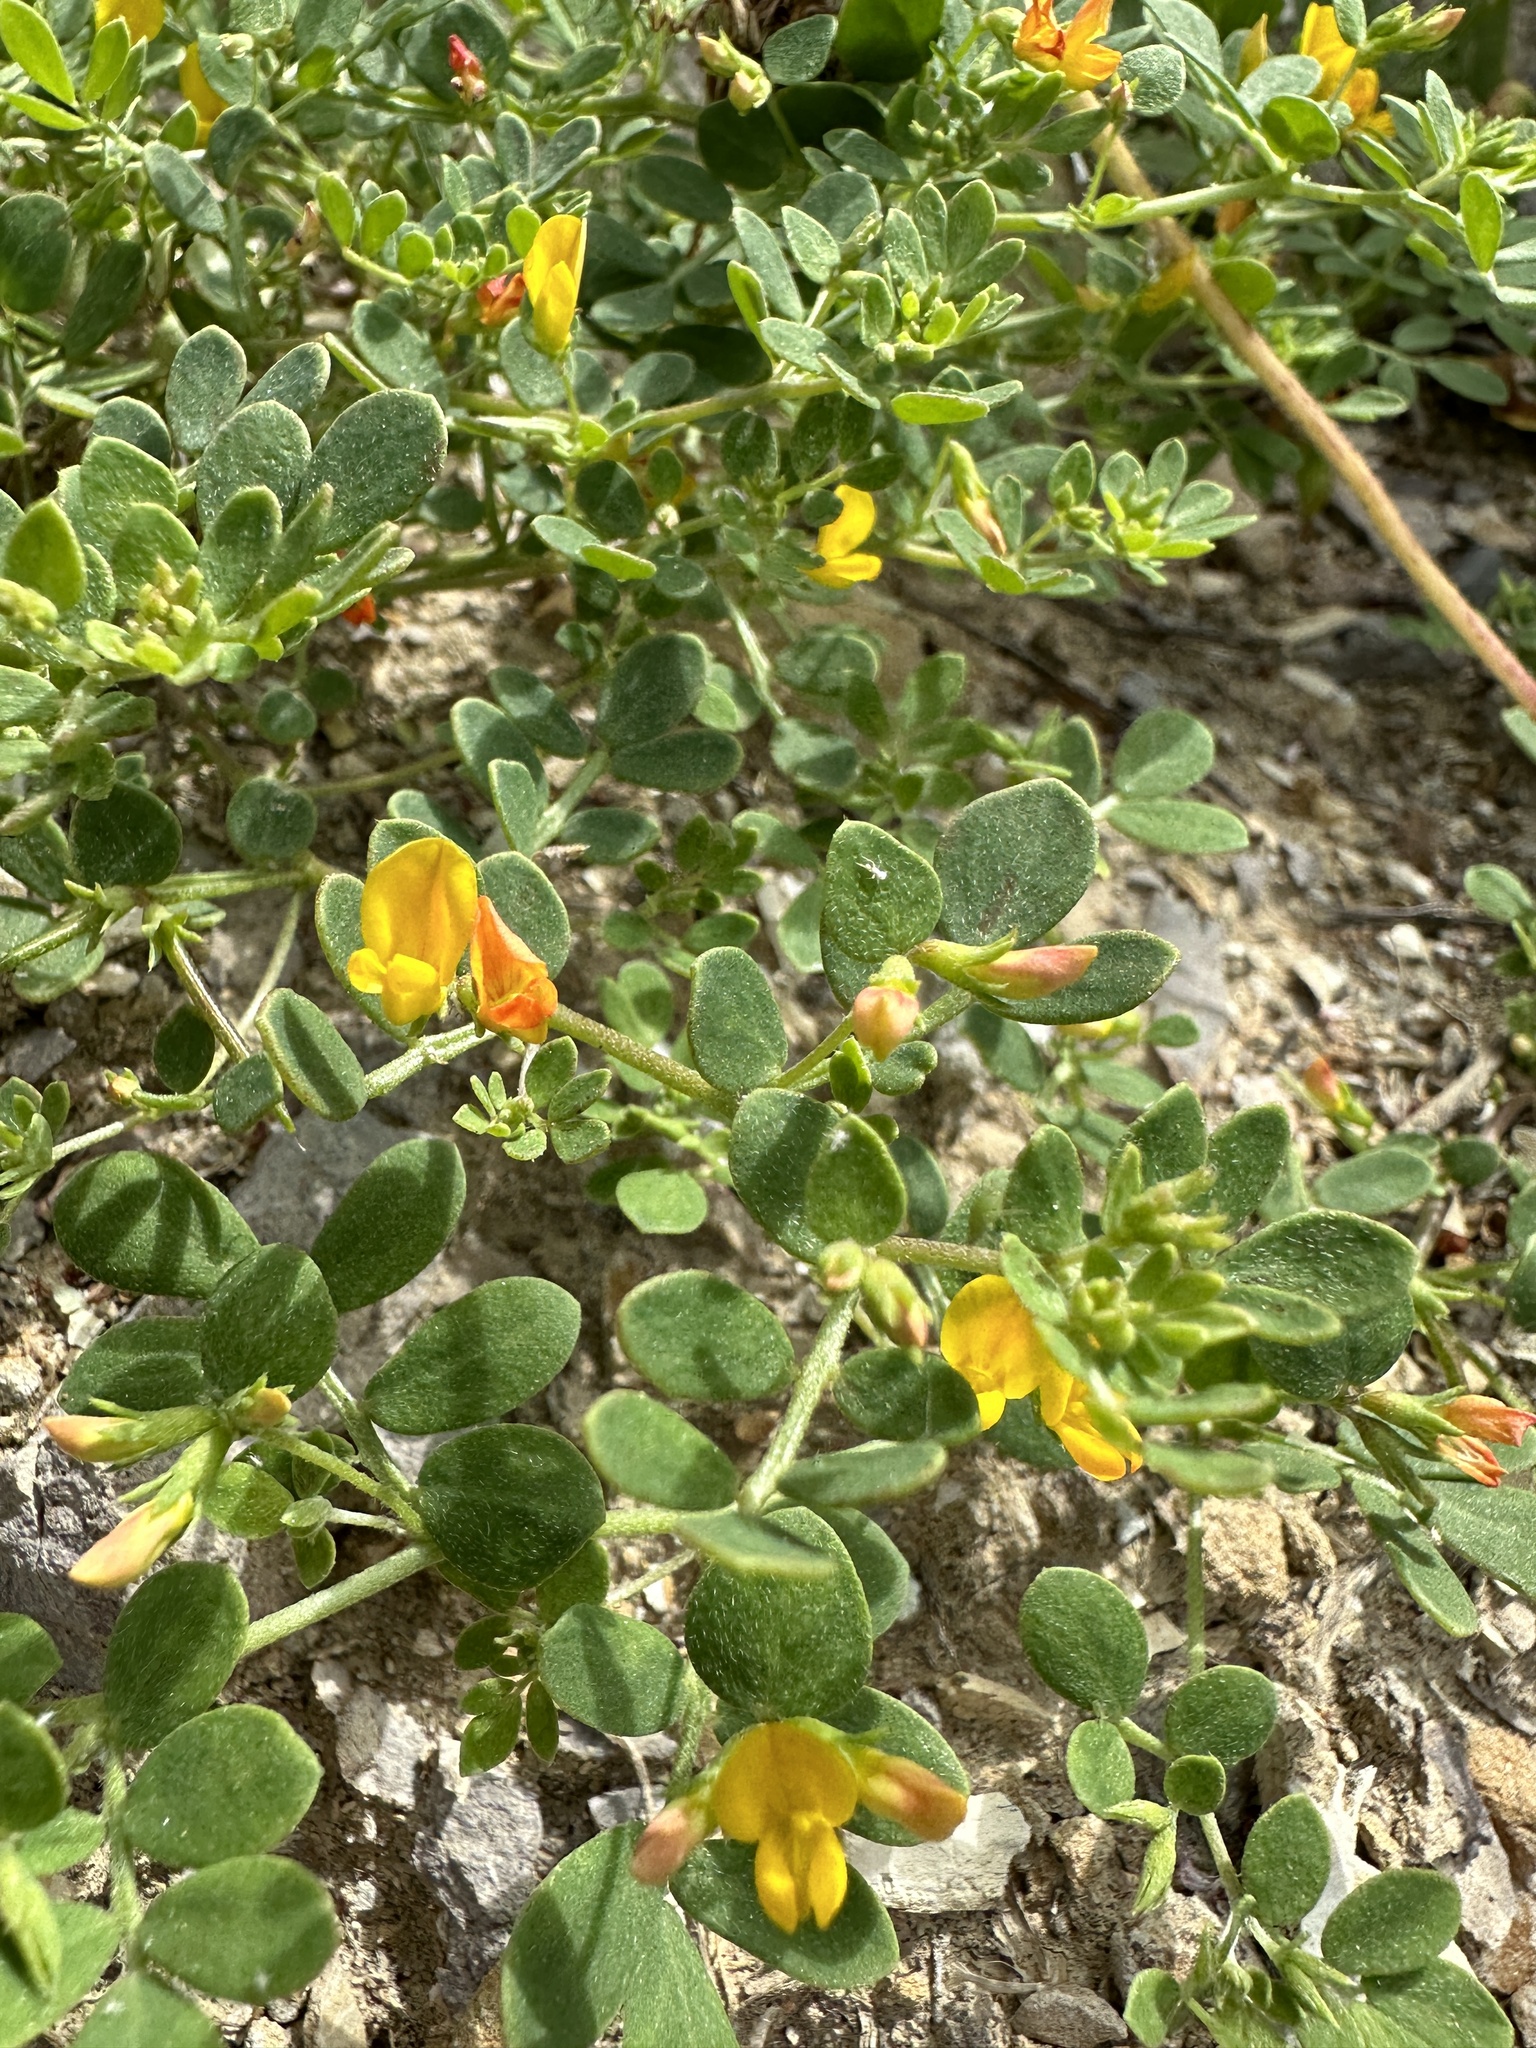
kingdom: Plantae
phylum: Tracheophyta
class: Magnoliopsida
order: Fabales
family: Fabaceae
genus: Acmispon
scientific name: Acmispon maritimus
